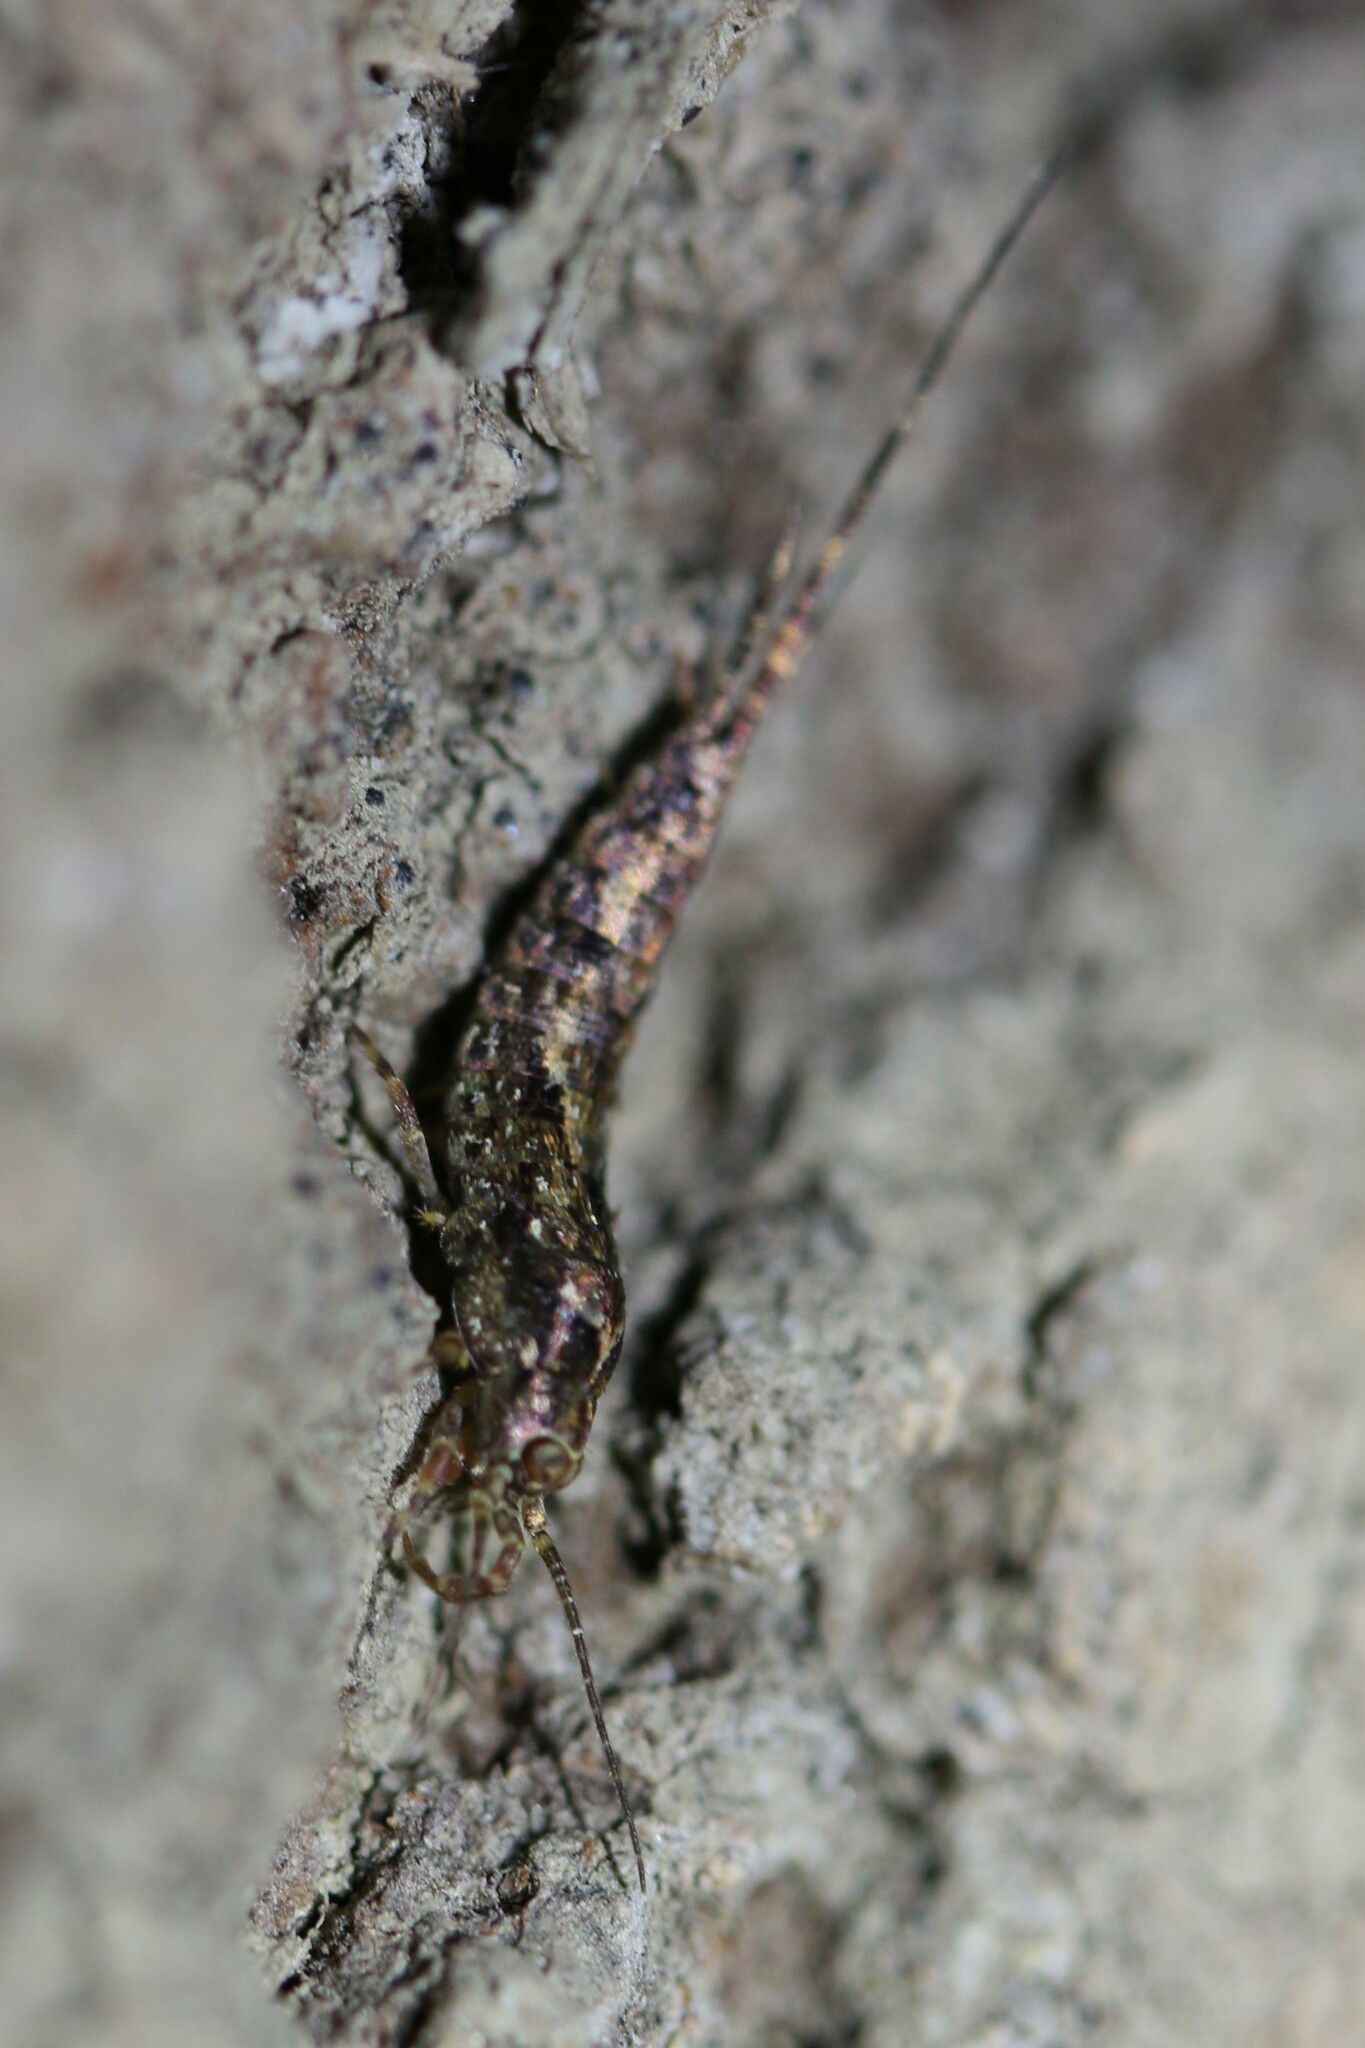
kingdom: Animalia
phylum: Arthropoda
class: Insecta
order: Archaeognatha
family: Machilidae
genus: Lepismachilis
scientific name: Lepismachilis y-signata
